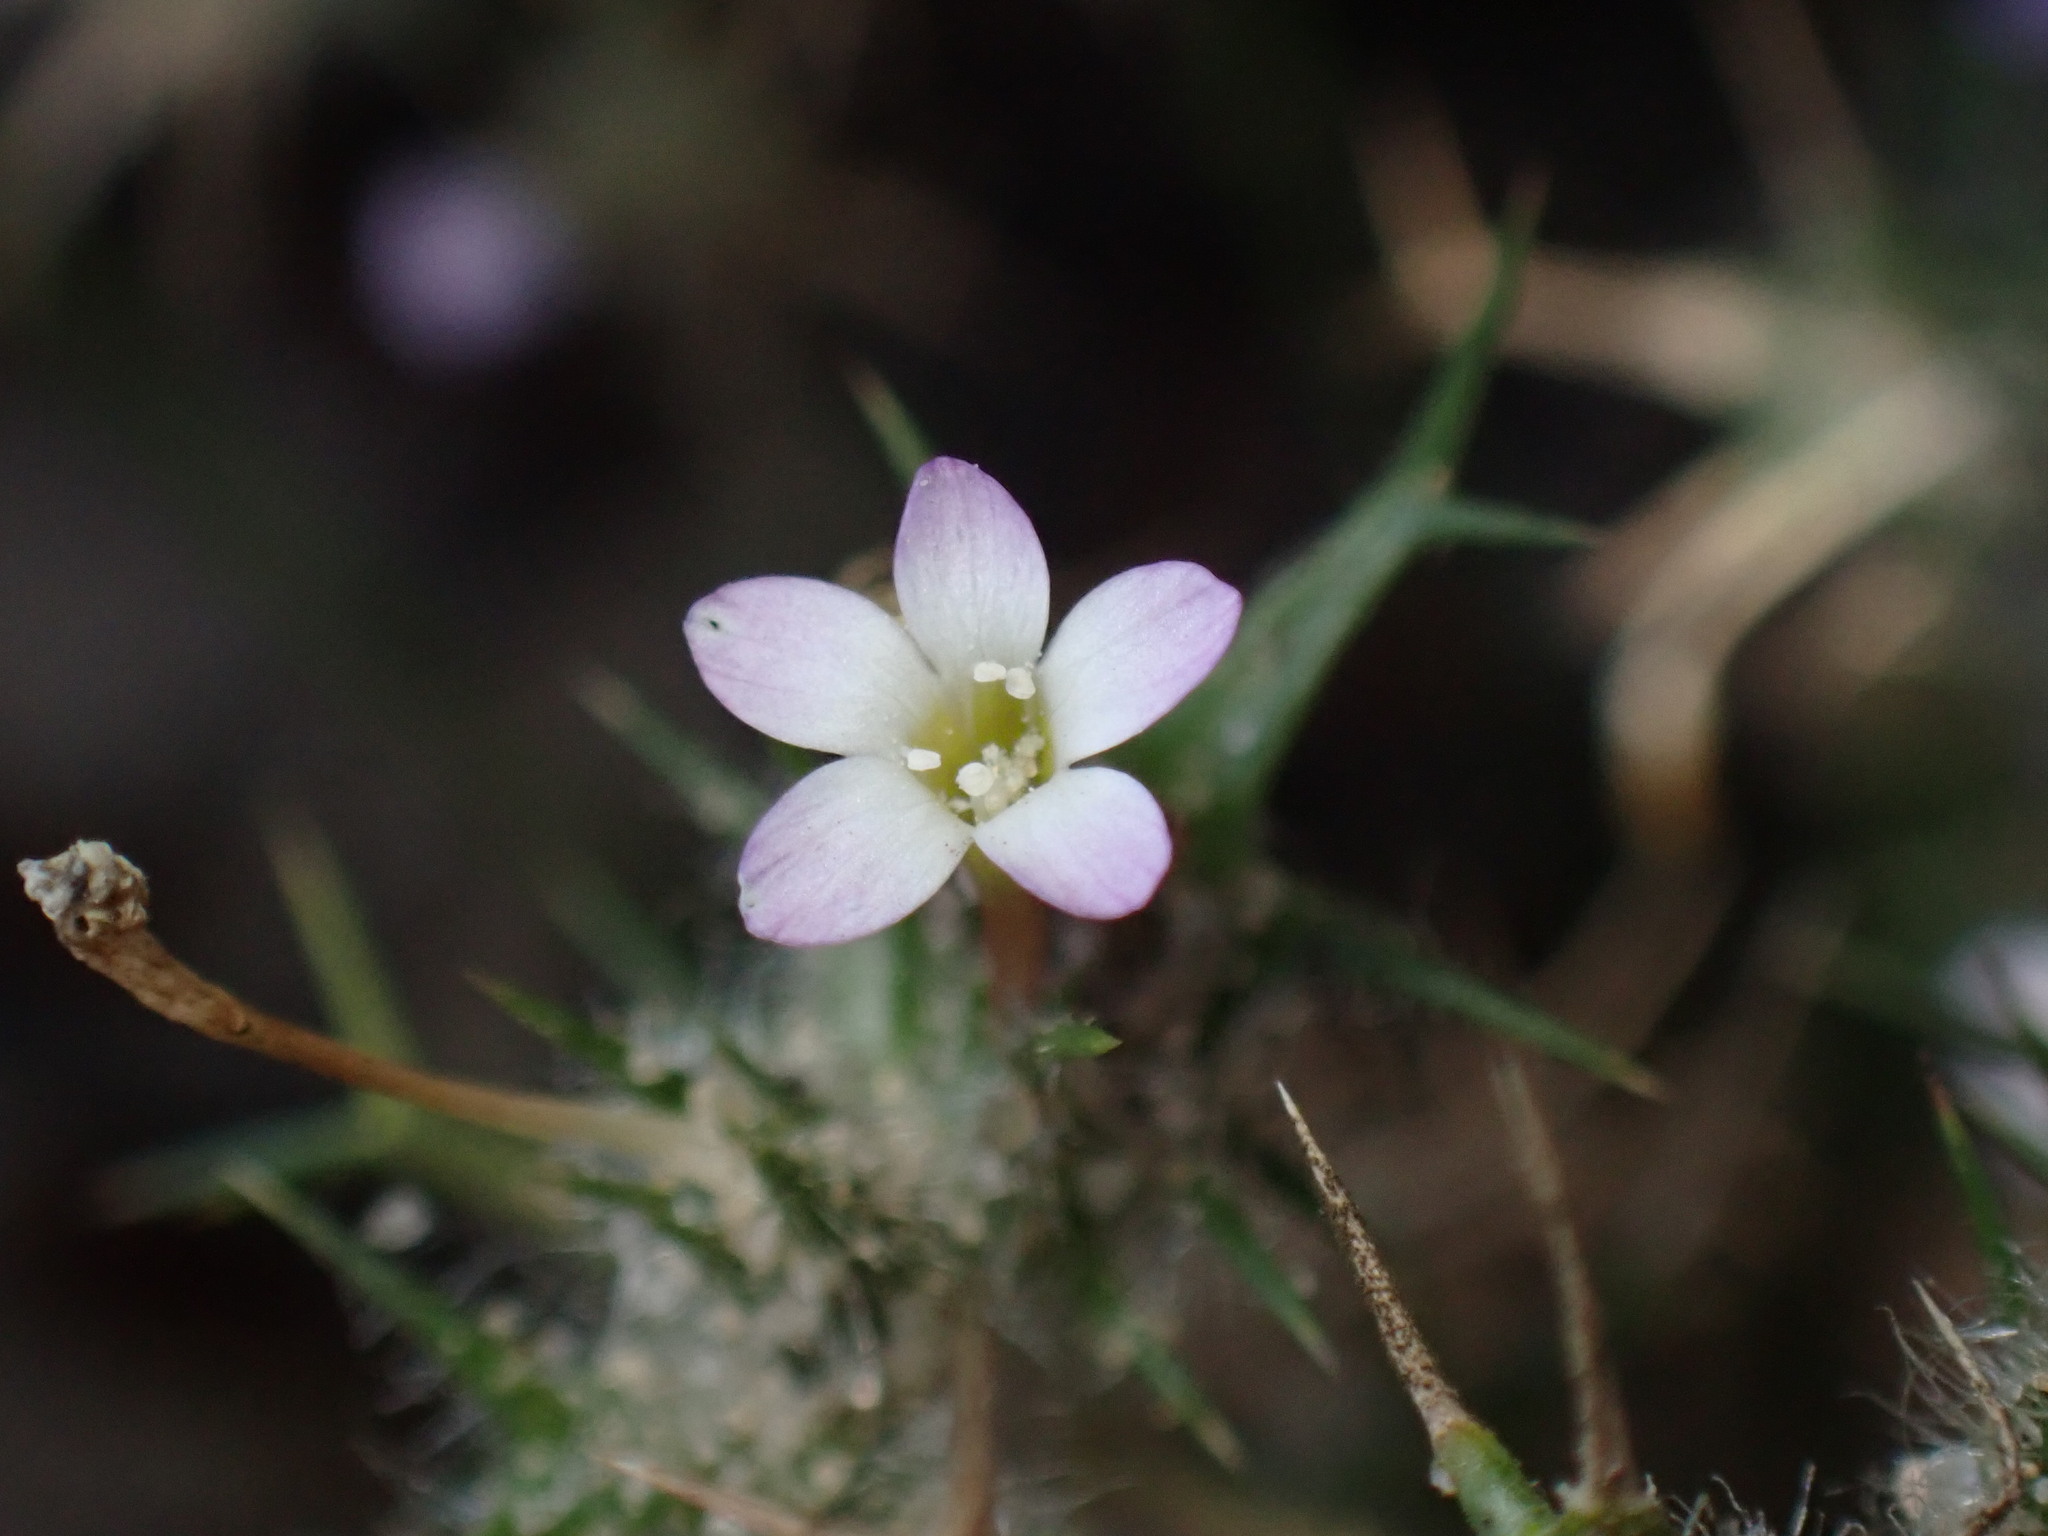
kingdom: Plantae
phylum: Tracheophyta
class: Magnoliopsida
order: Ericales
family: Polemoniaceae
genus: Navarretia
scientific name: Navarretia hamata
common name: Hooked navarretia
